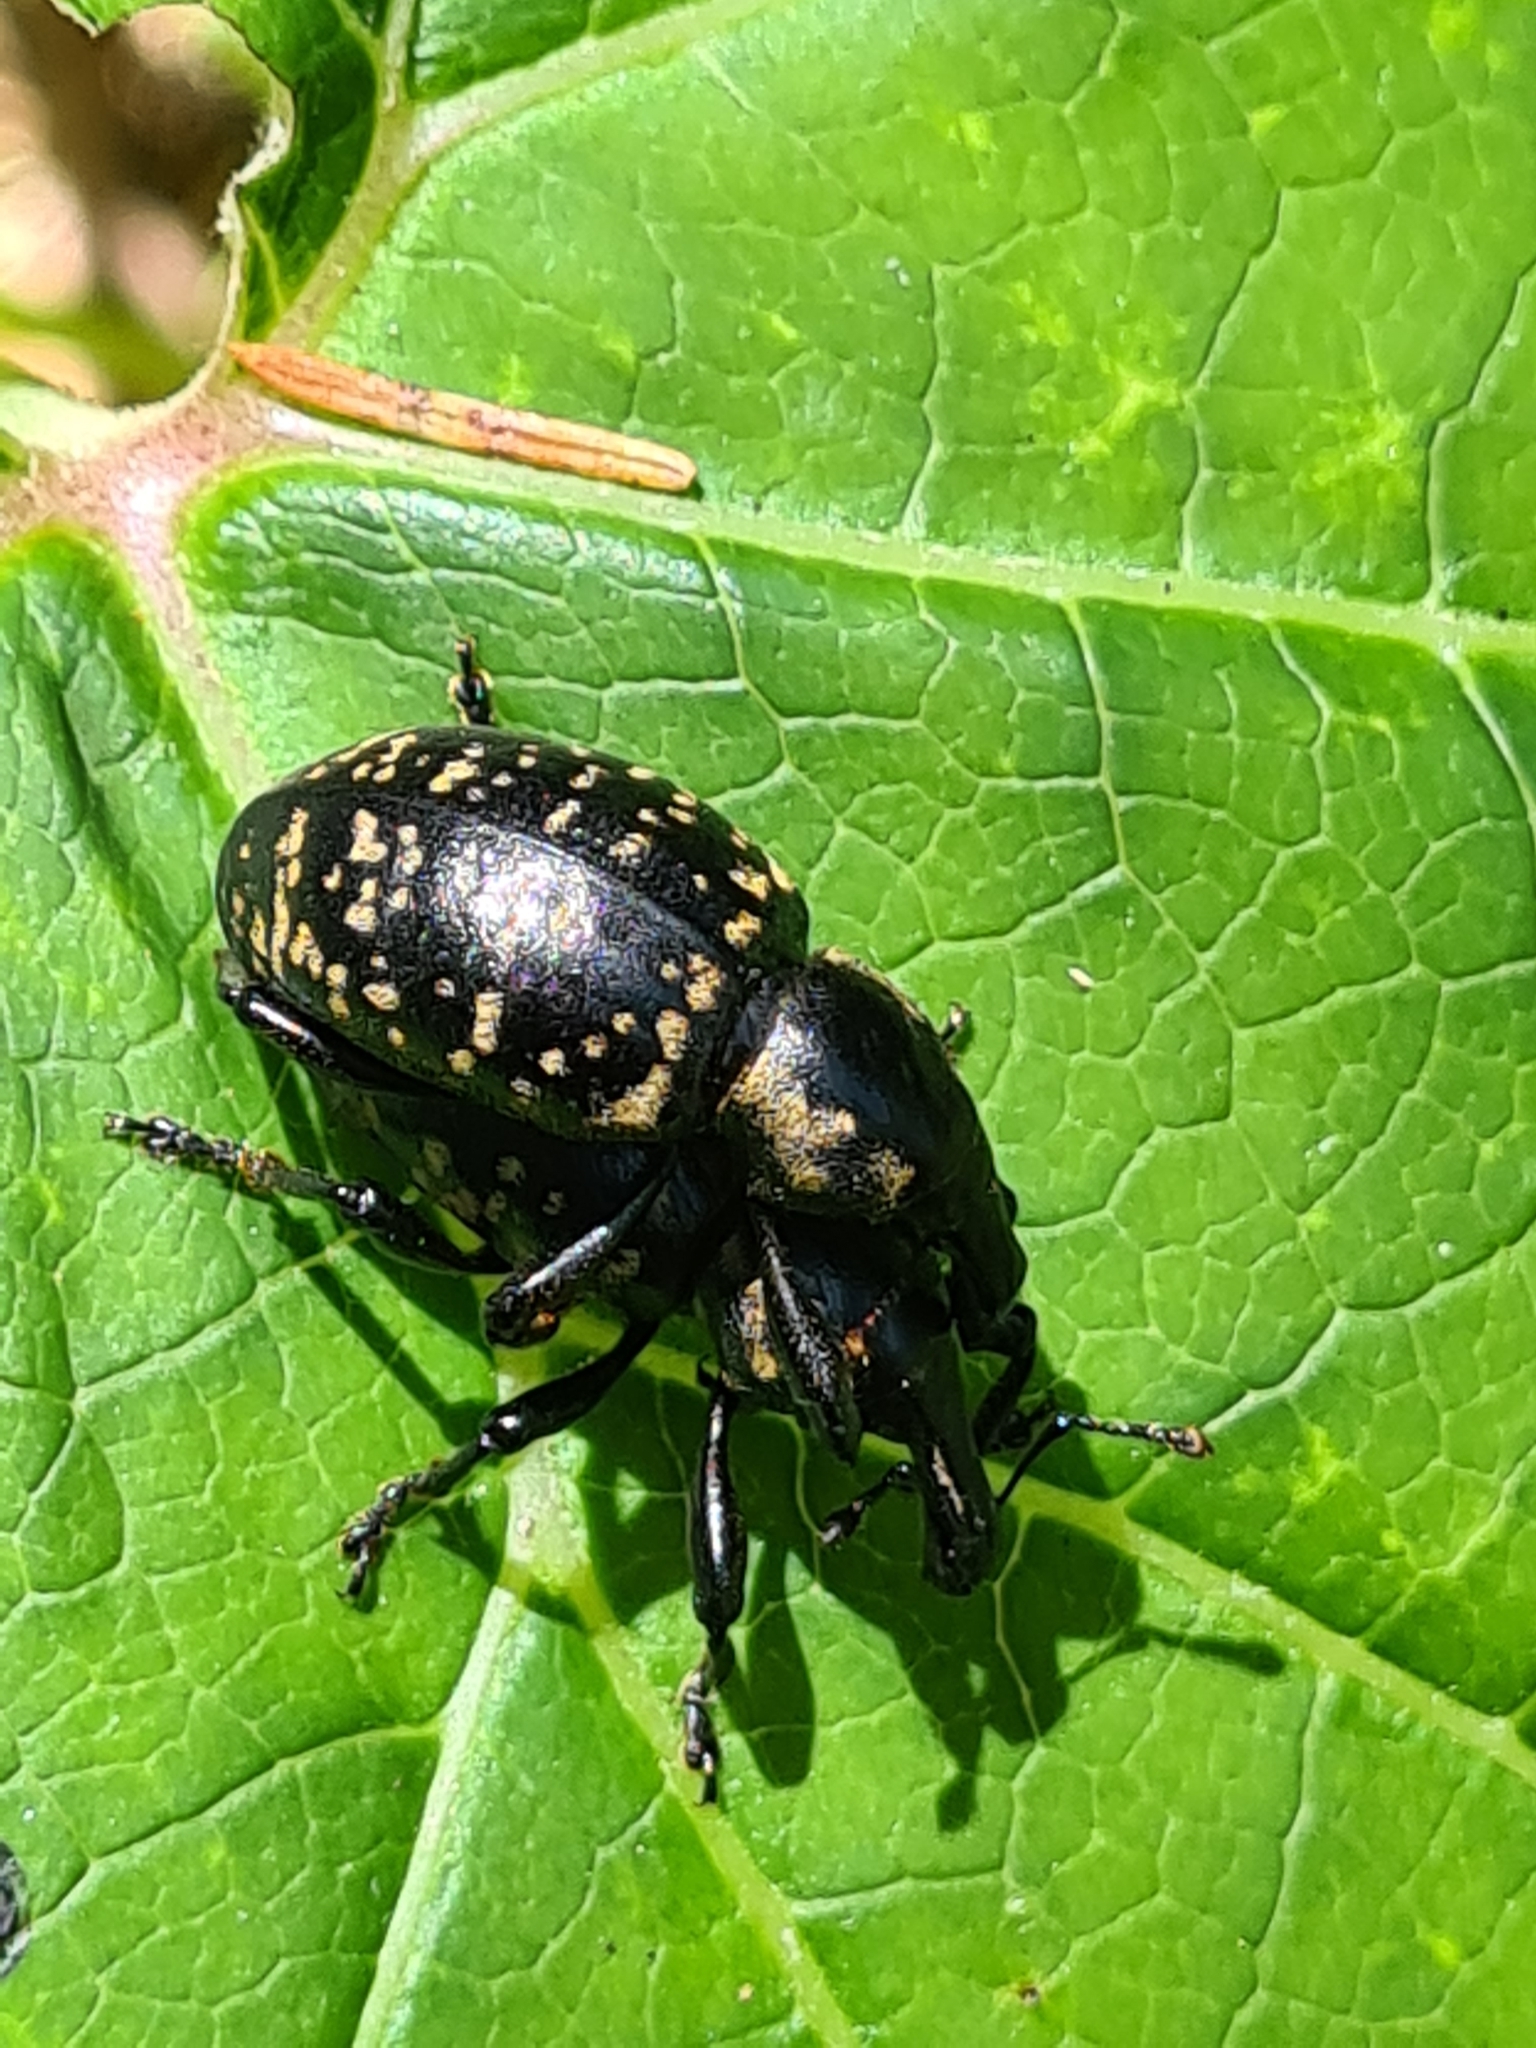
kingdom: Animalia
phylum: Arthropoda
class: Insecta
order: Coleoptera
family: Curculionidae
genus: Liparus
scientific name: Liparus glabrirostris
